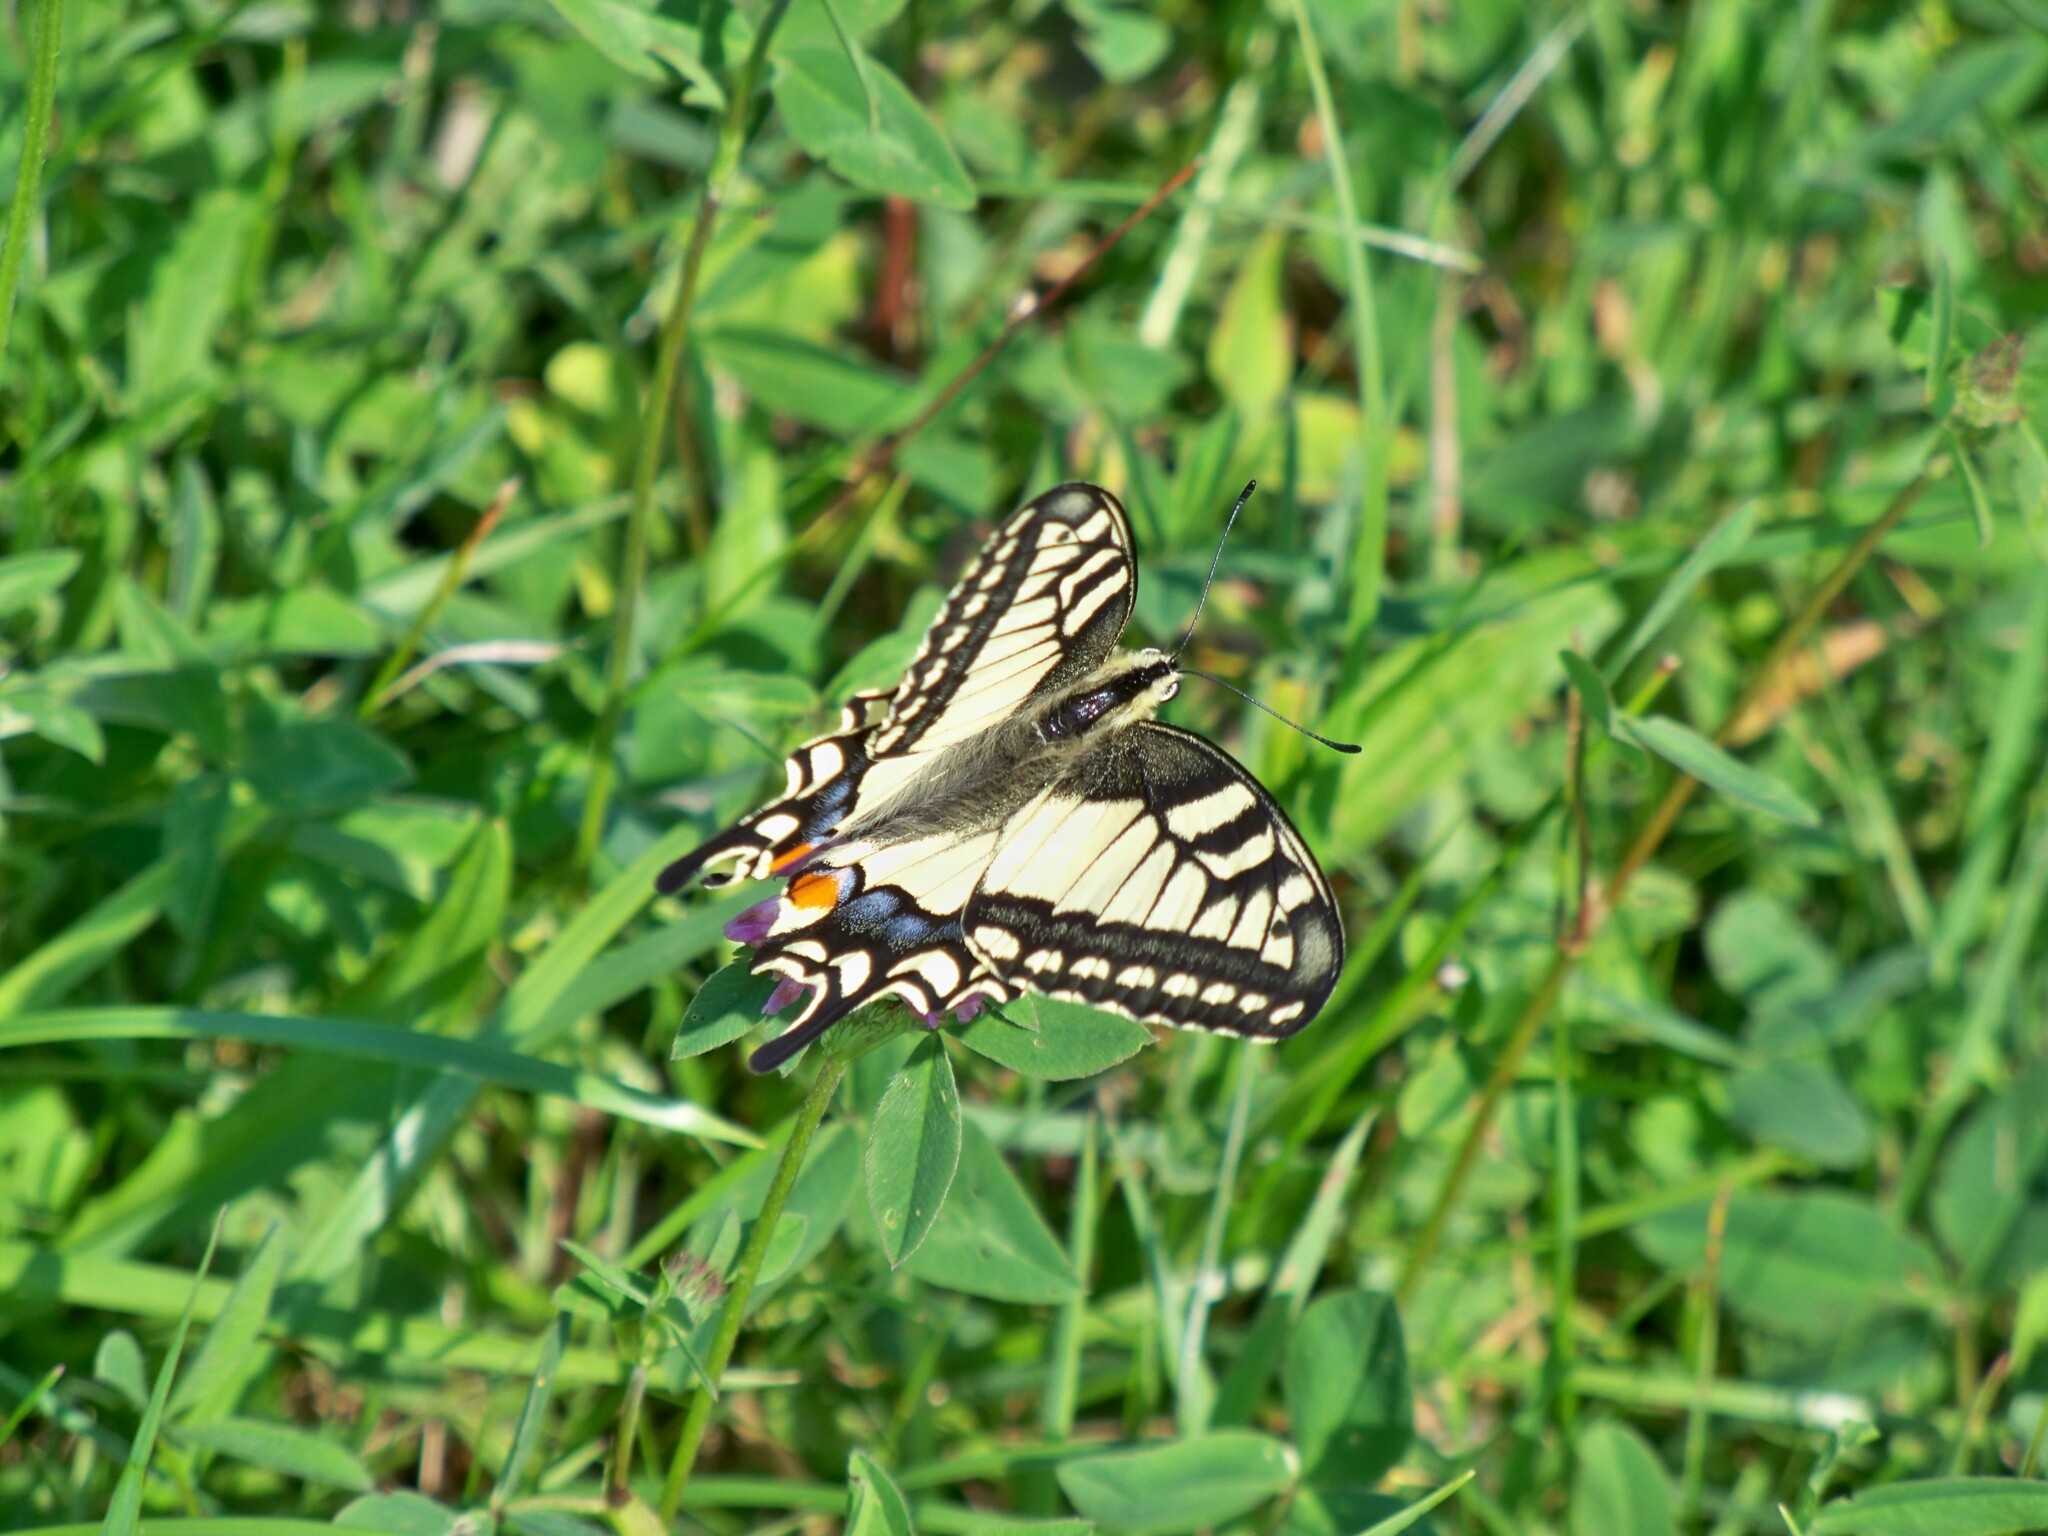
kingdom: Animalia
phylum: Arthropoda
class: Insecta
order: Lepidoptera
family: Papilionidae
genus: Papilio
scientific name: Papilio machaon
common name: Swallowtail
